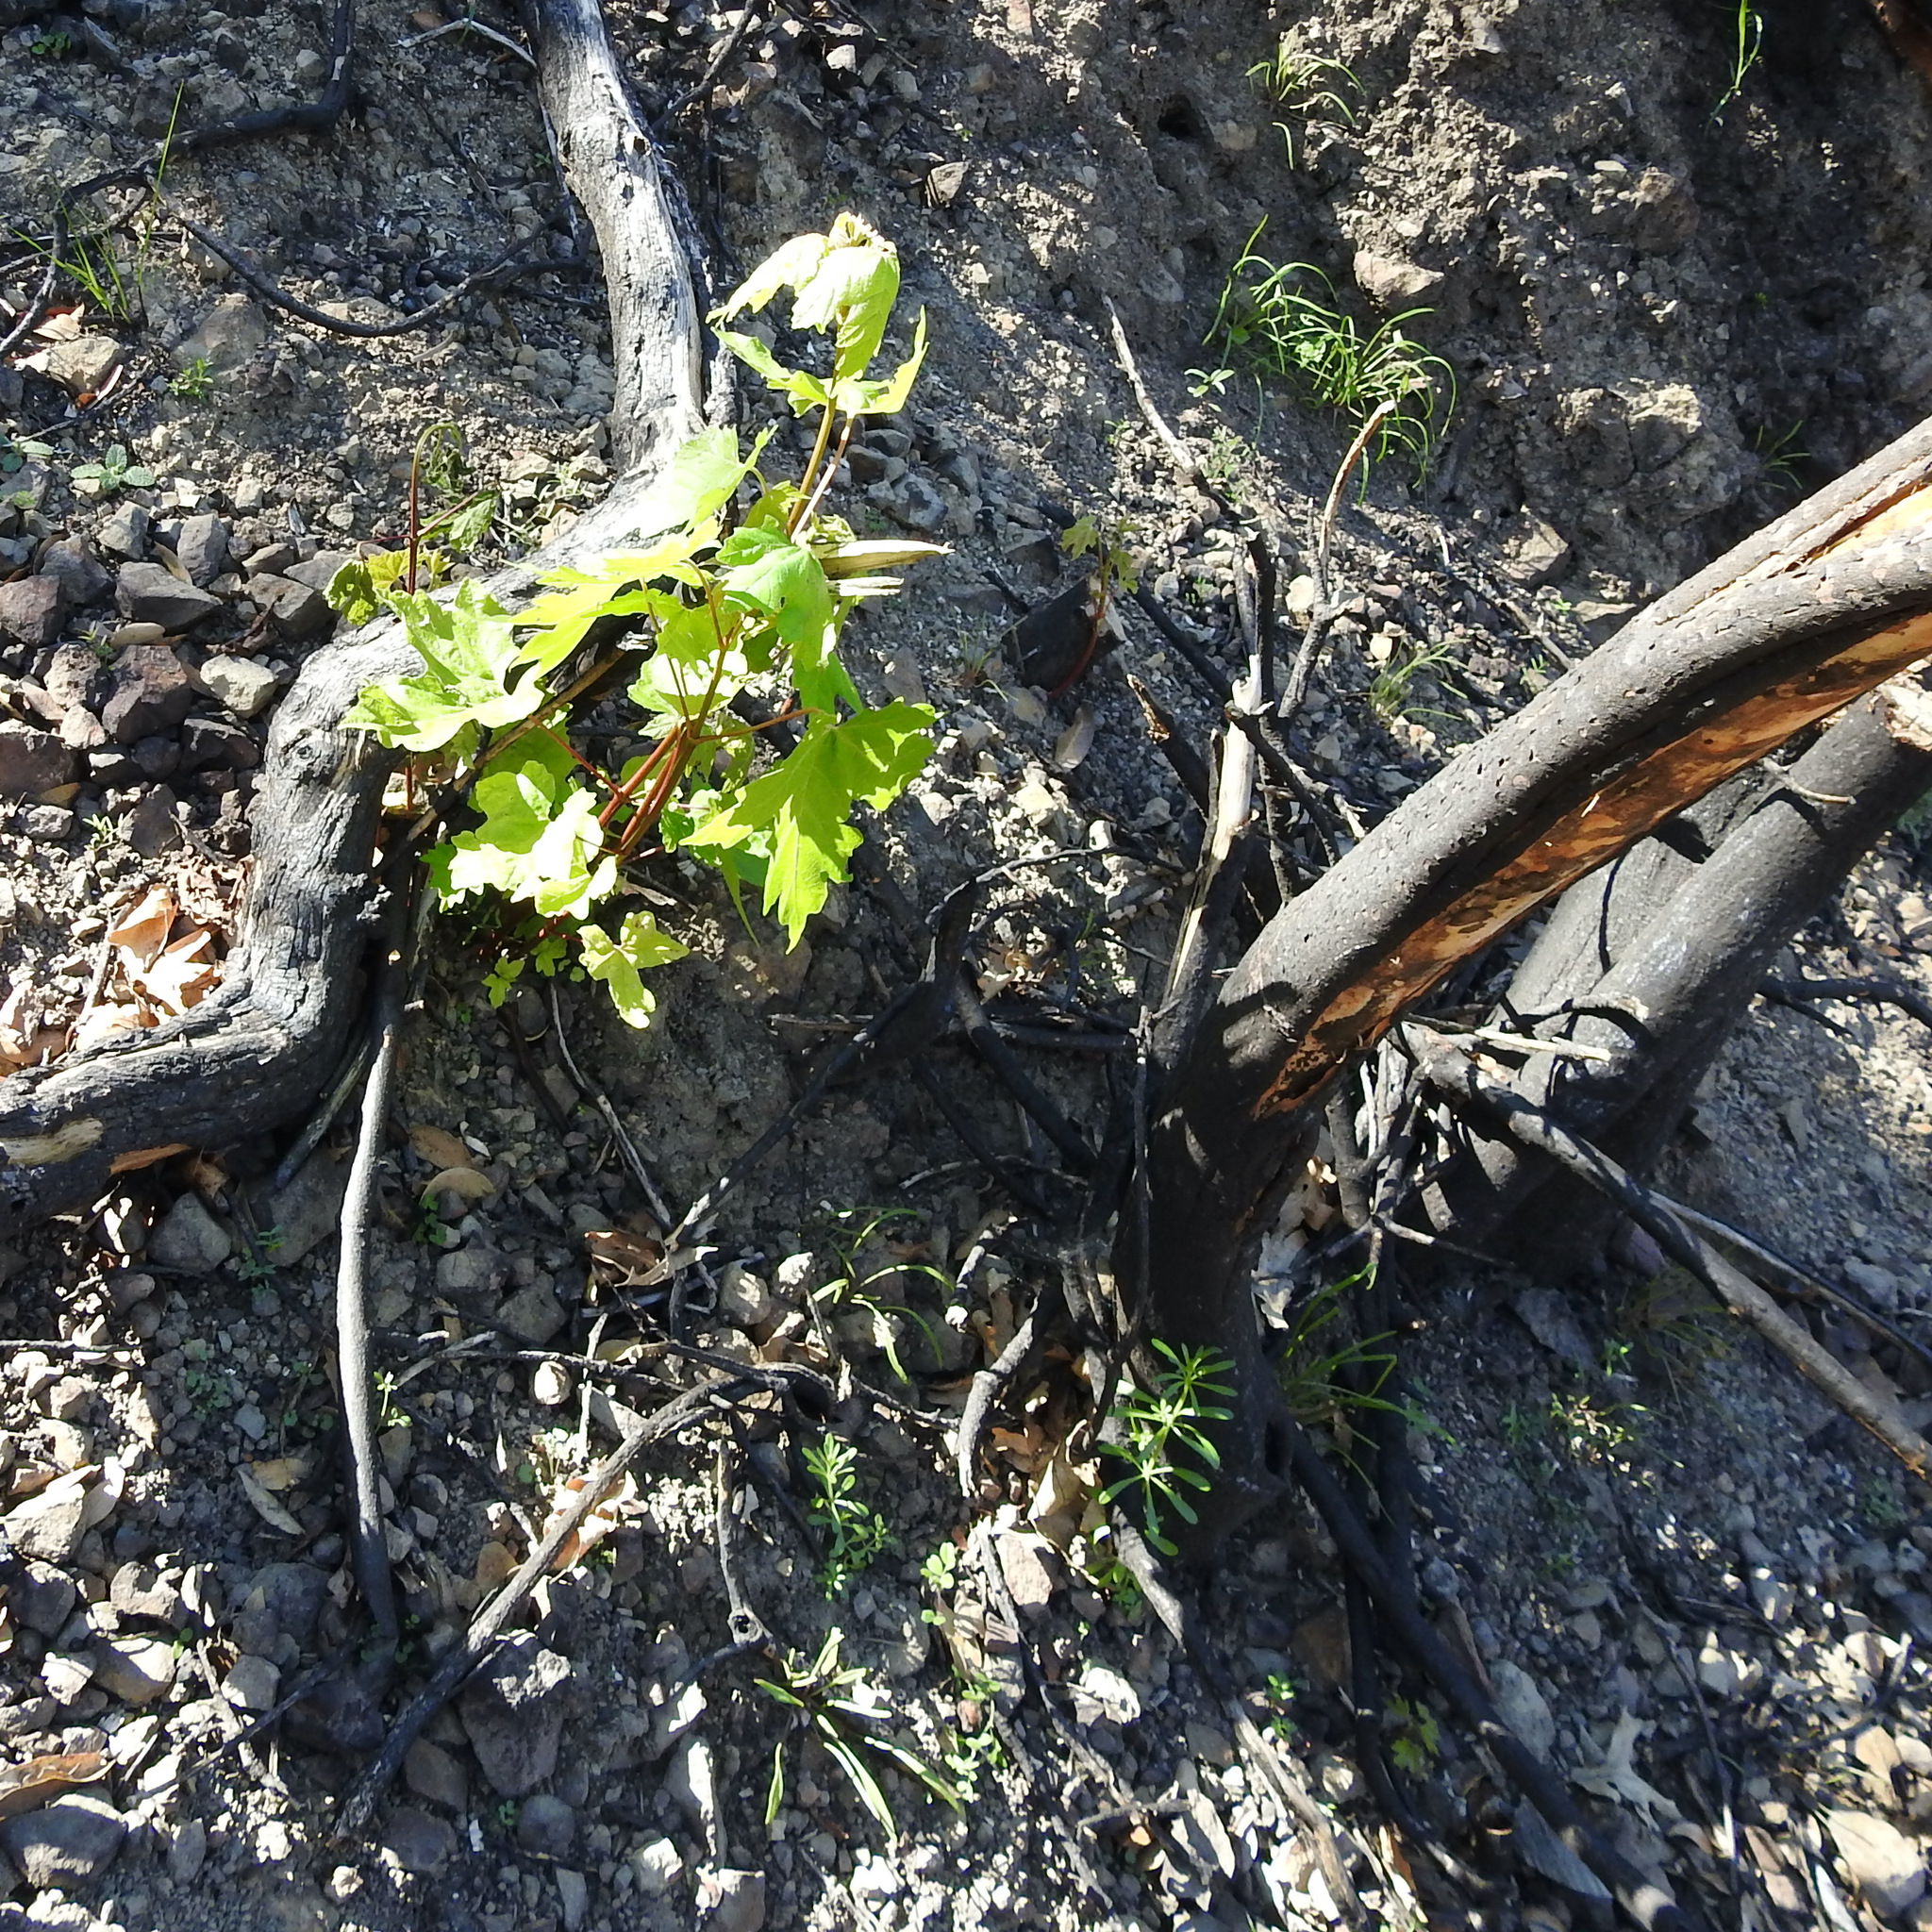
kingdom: Plantae
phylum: Tracheophyta
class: Magnoliopsida
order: Sapindales
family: Sapindaceae
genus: Acer
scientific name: Acer macrophyllum
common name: Oregon maple
